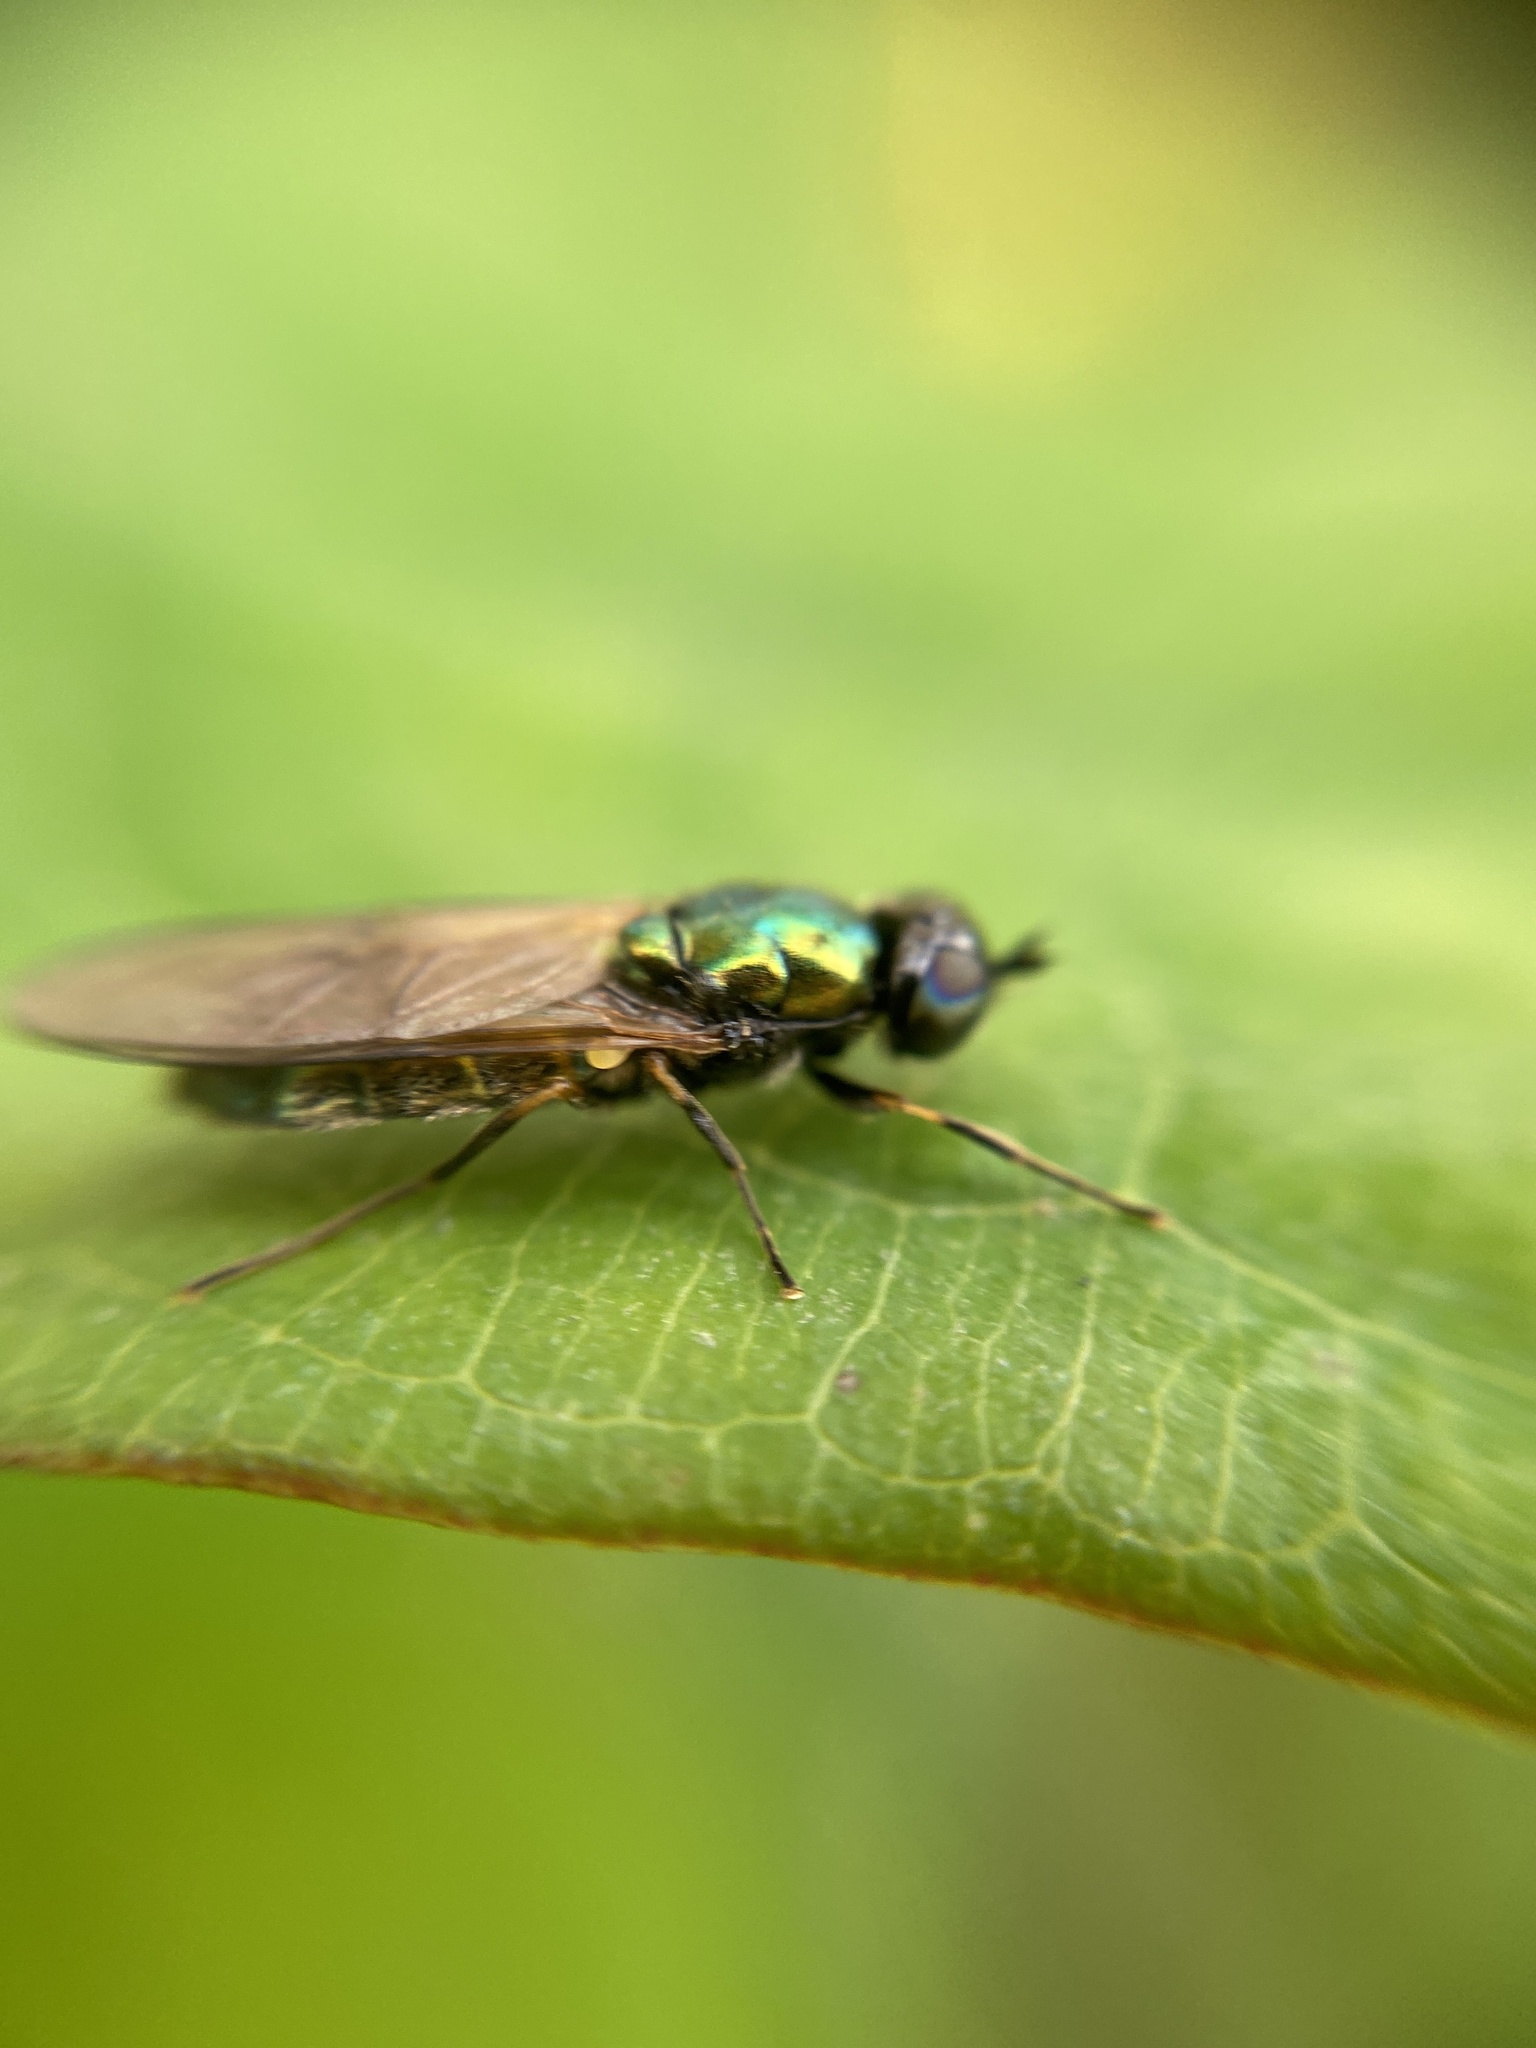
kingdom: Animalia
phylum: Arthropoda
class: Insecta
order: Diptera
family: Stratiomyidae
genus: Chloromyia
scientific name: Chloromyia formosa
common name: Soldier fly
